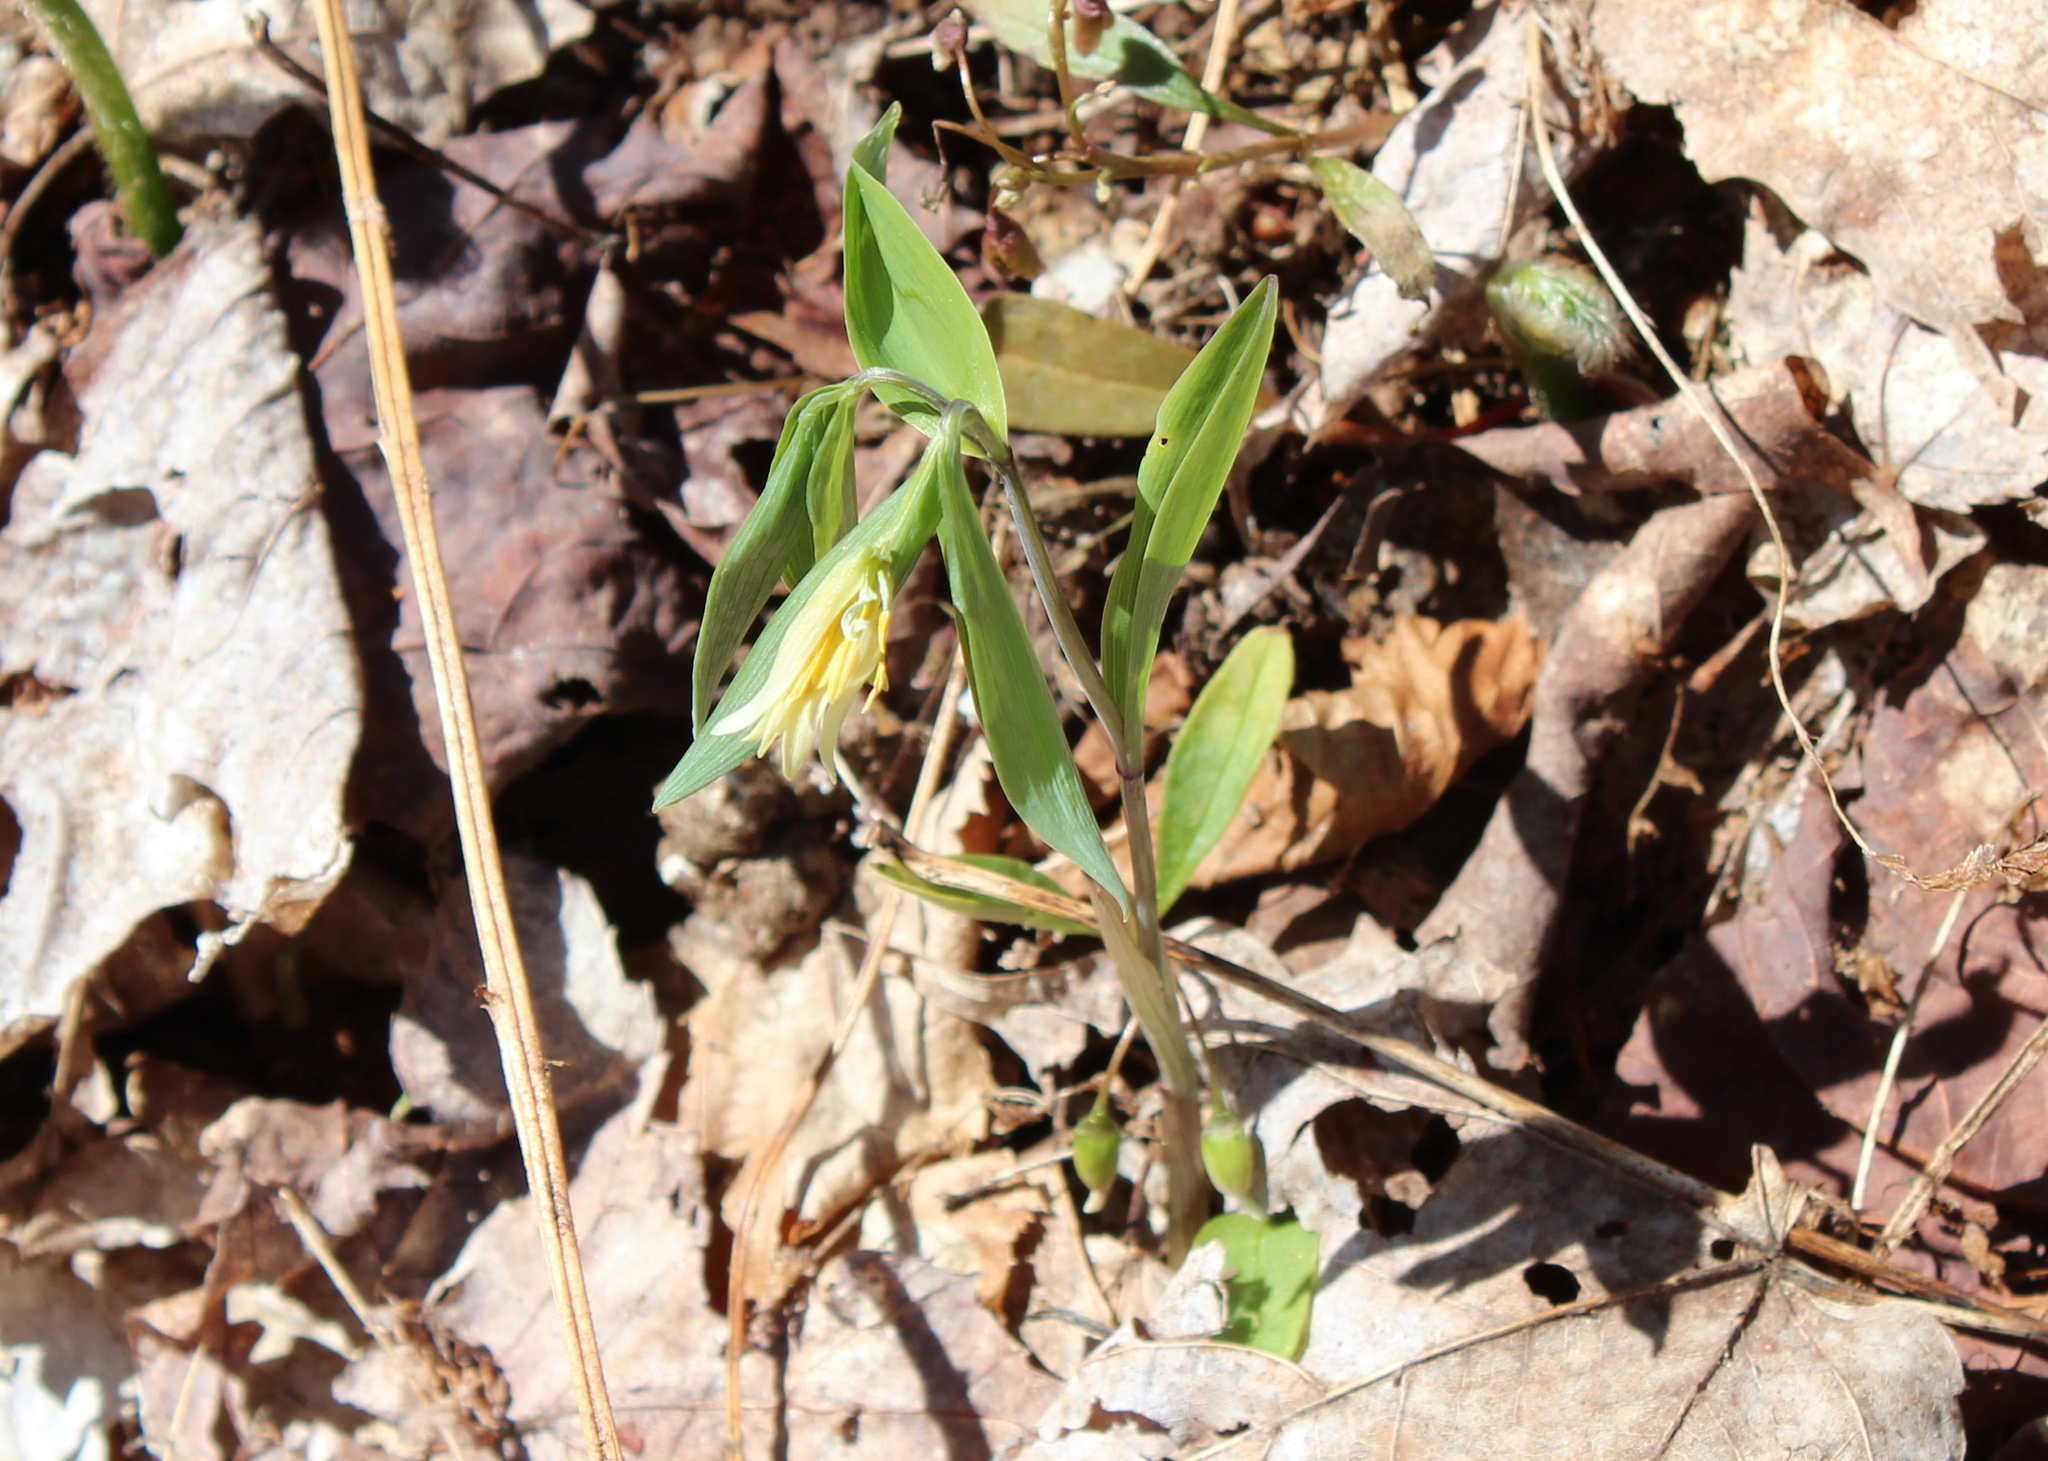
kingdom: Plantae
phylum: Tracheophyta
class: Liliopsida
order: Liliales
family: Colchicaceae
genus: Uvularia
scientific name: Uvularia sessilifolia
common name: Straw-lily
